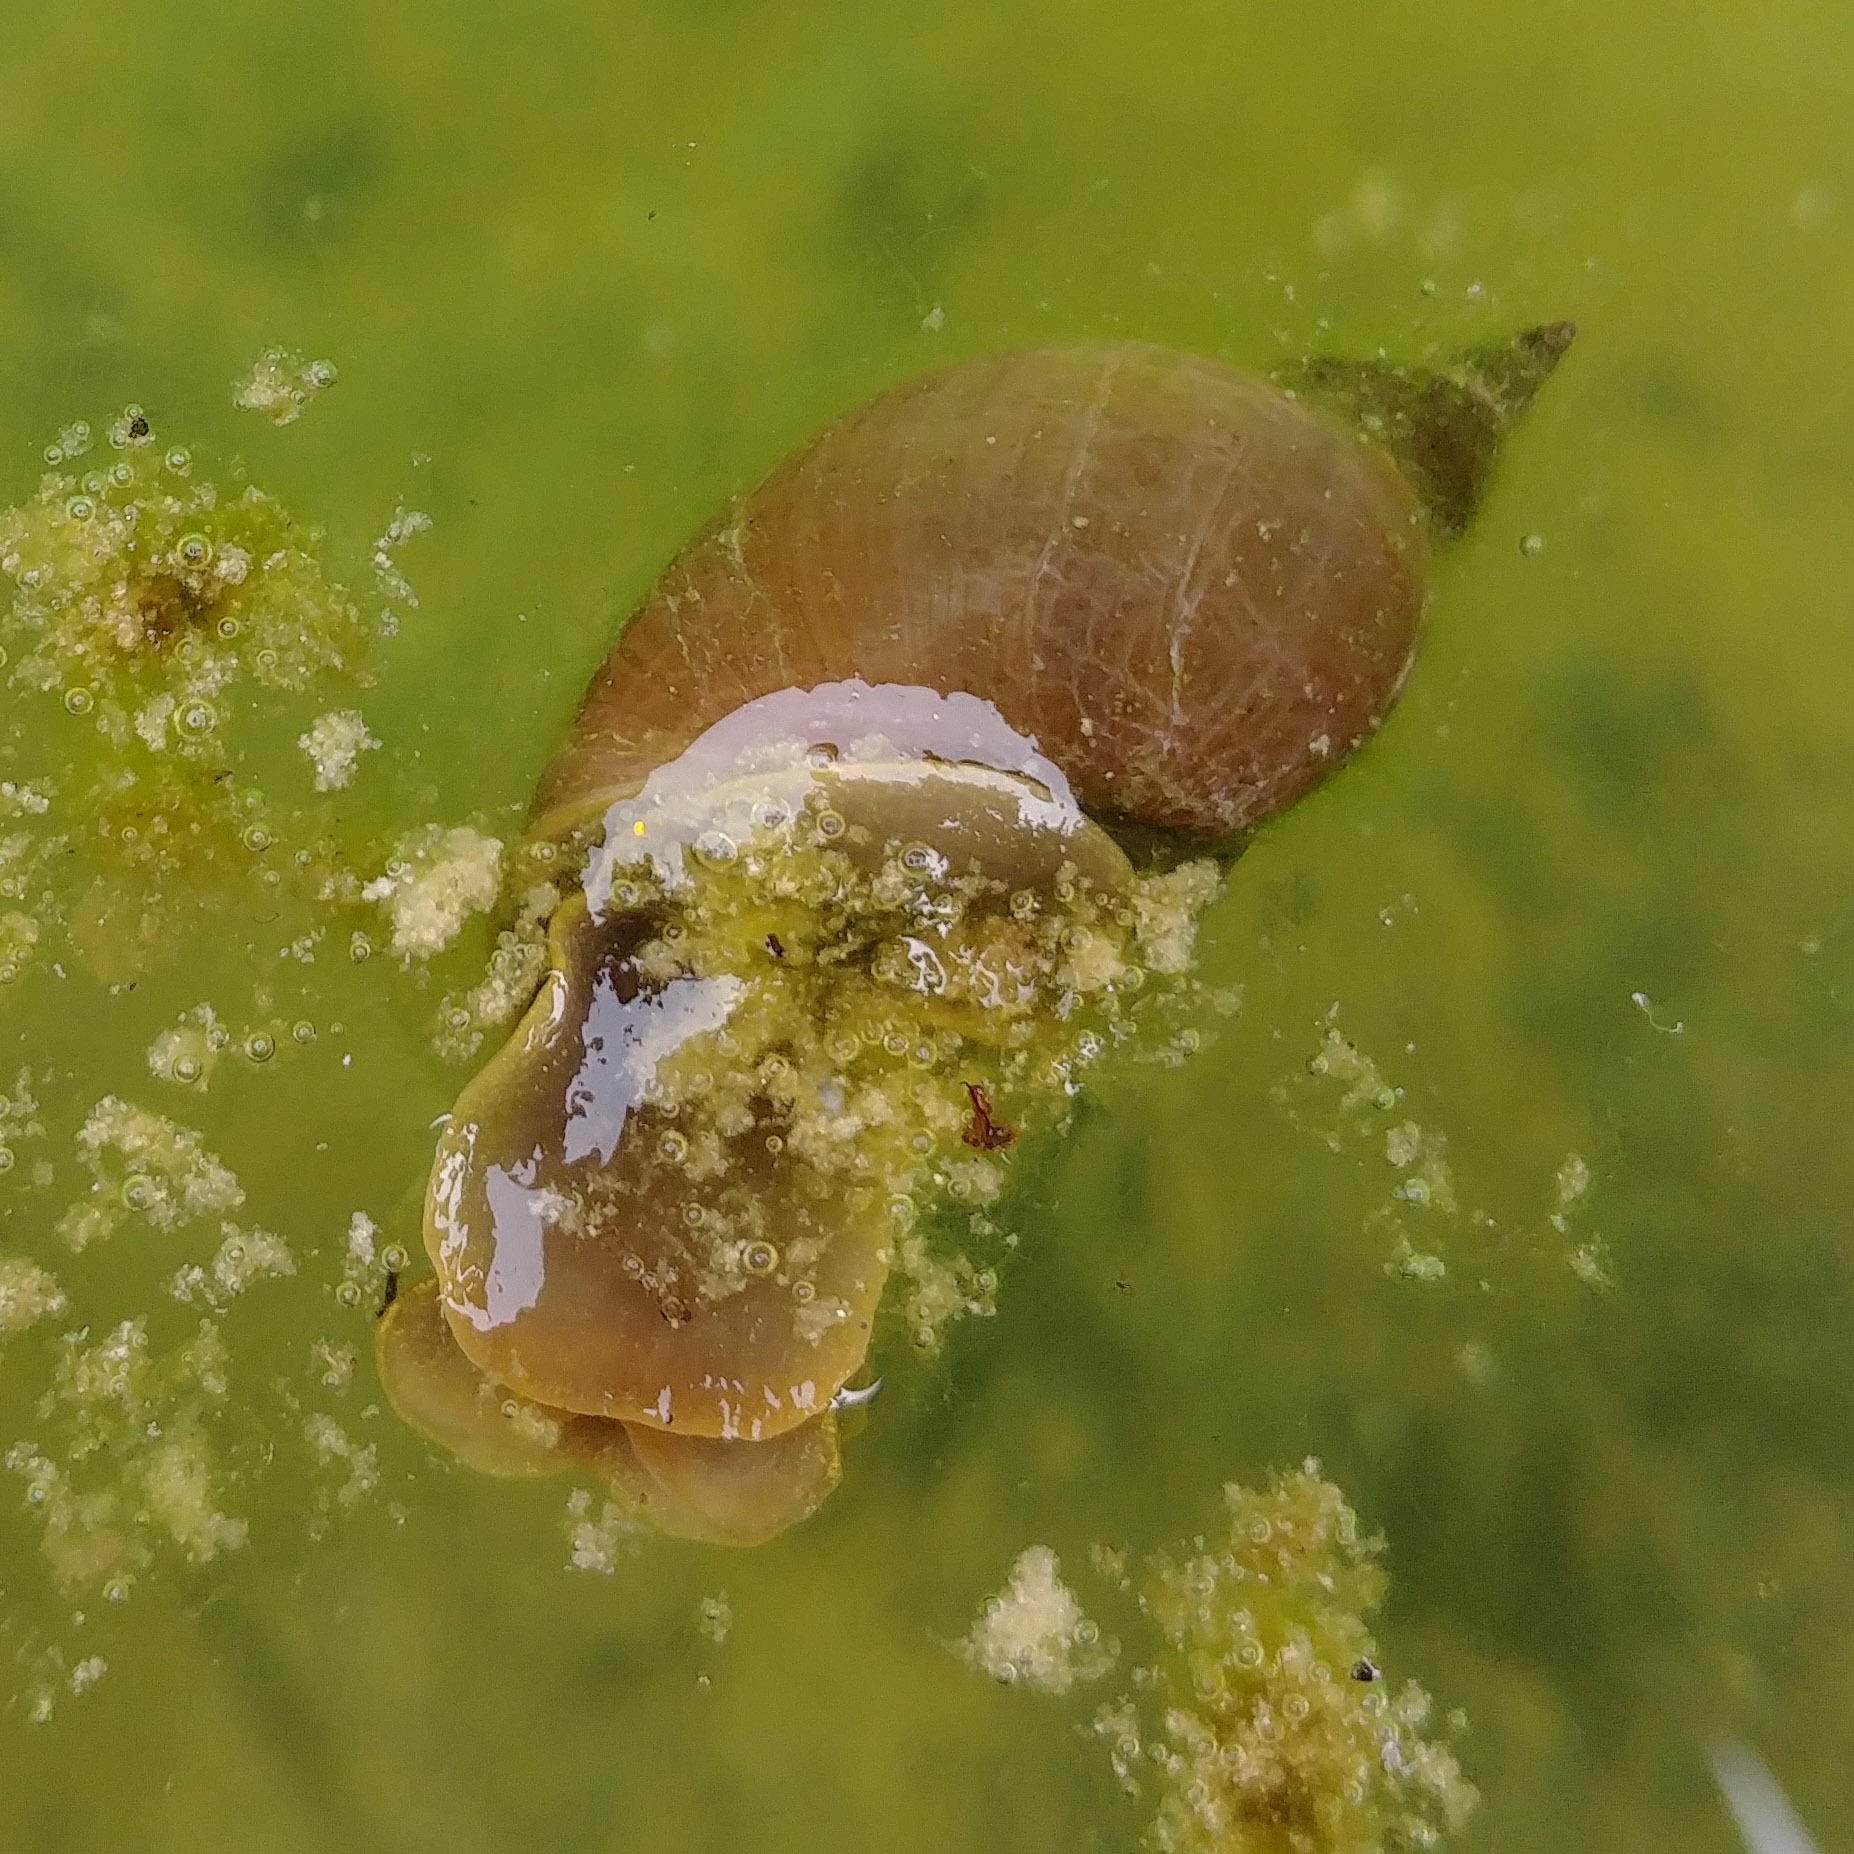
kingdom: Animalia
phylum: Mollusca
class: Gastropoda
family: Lymnaeidae
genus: Lymnaea
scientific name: Lymnaea stagnalis
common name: Great pond snail
